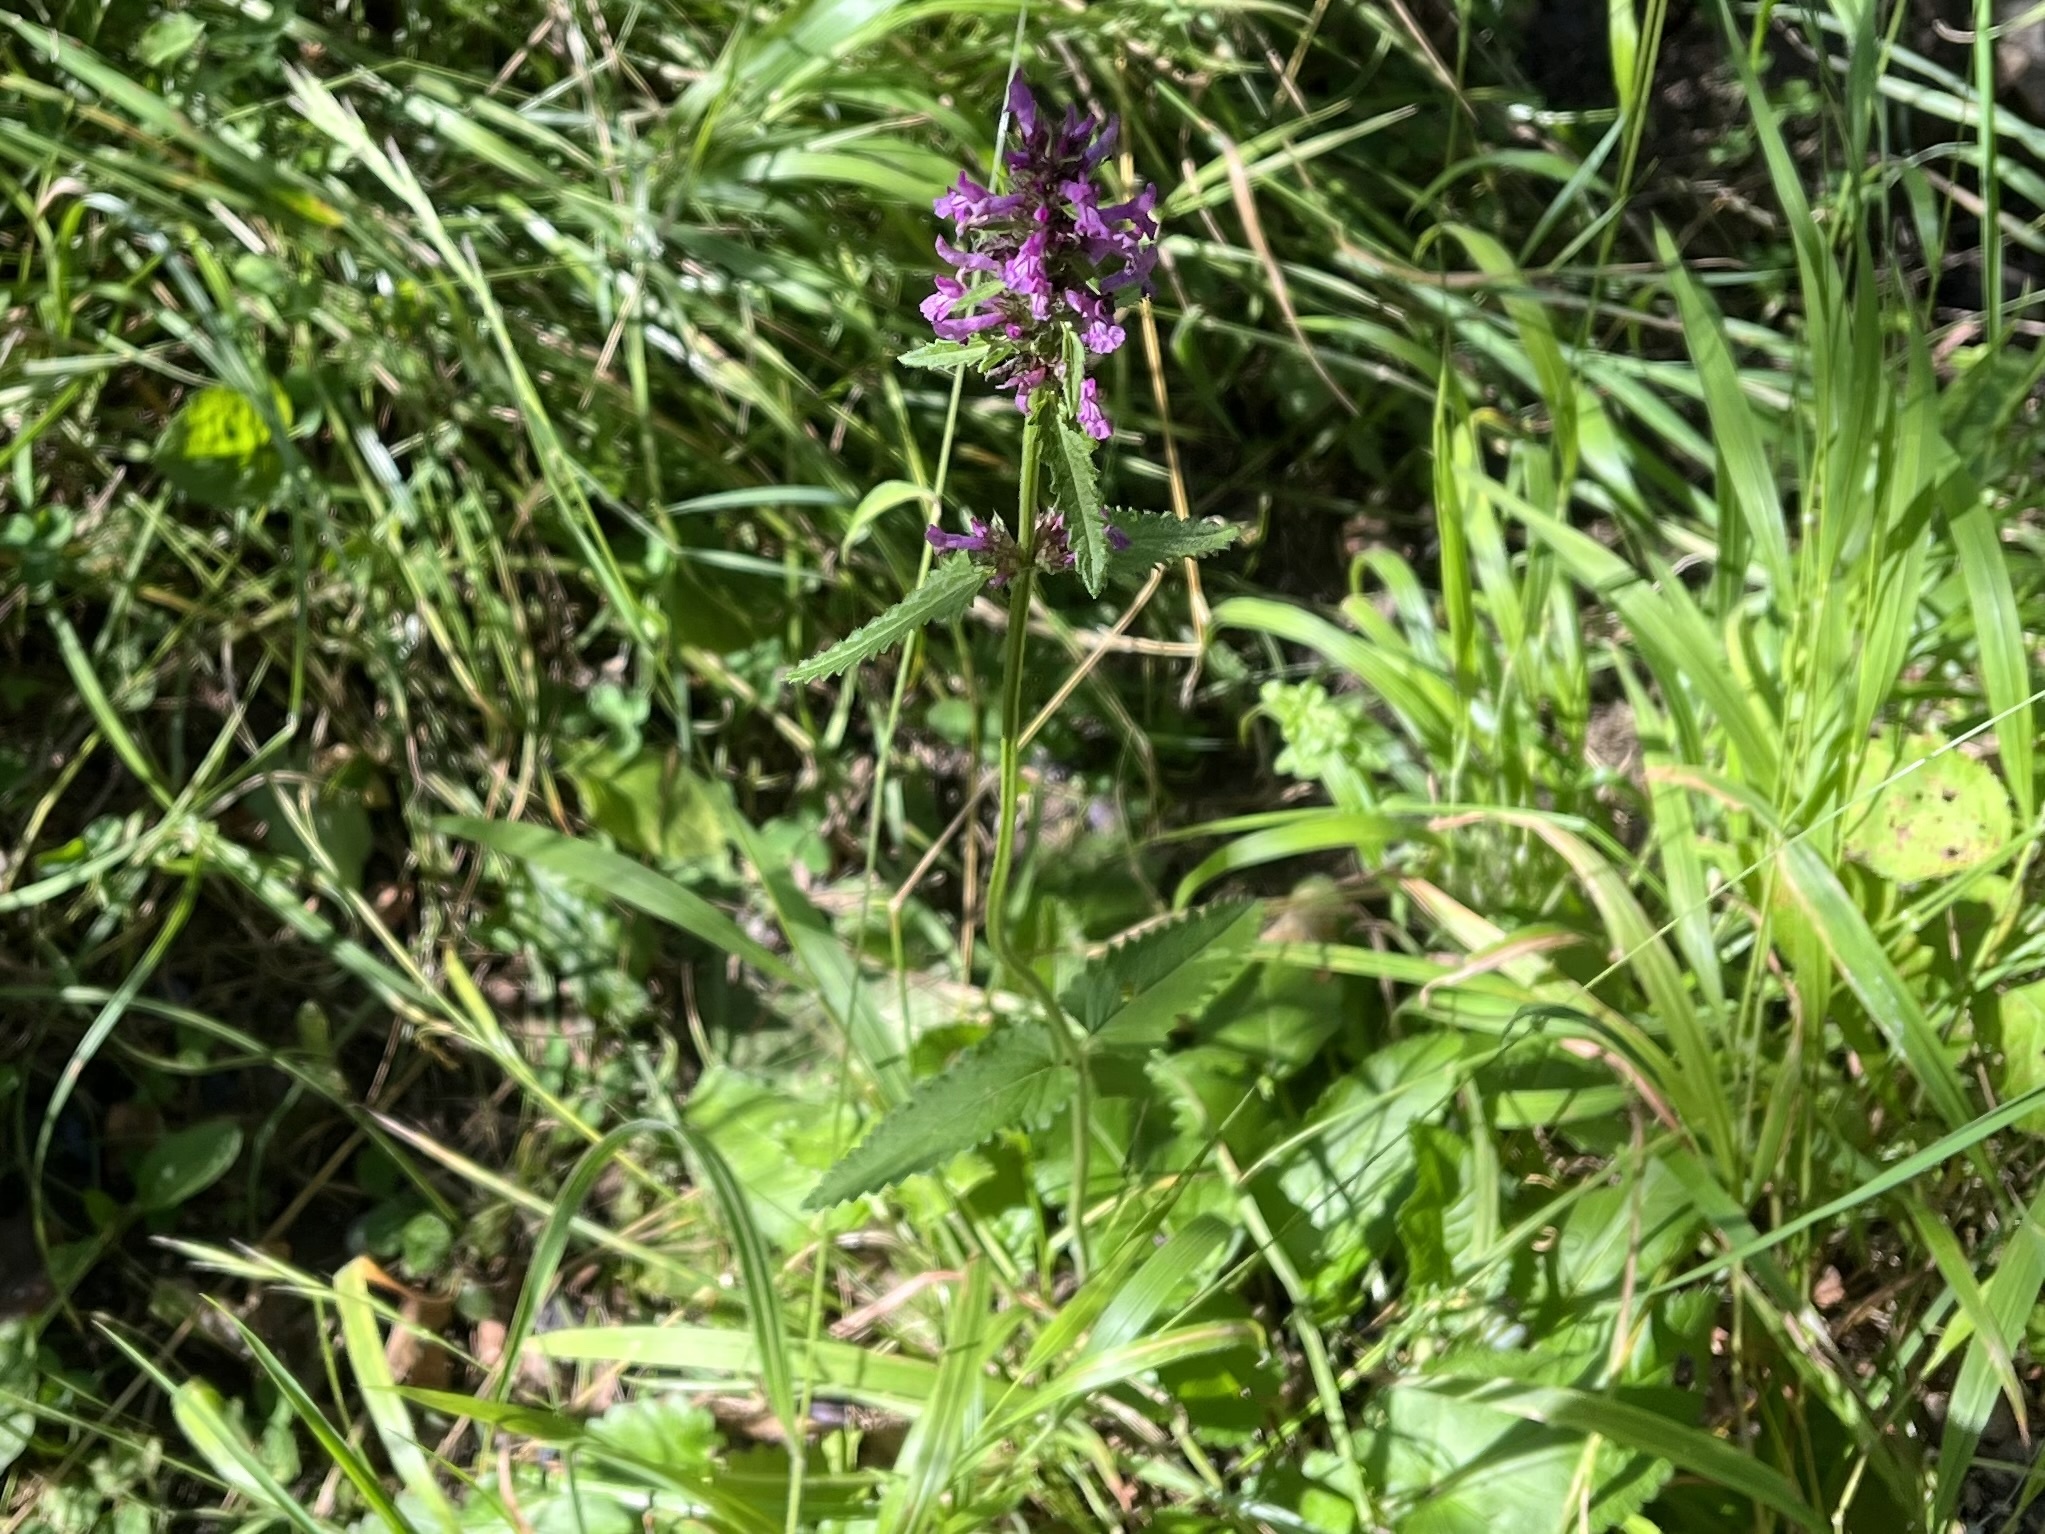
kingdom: Plantae
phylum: Tracheophyta
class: Magnoliopsida
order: Lamiales
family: Lamiaceae
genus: Betonica
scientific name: Betonica officinalis
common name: Bishop's-wort
